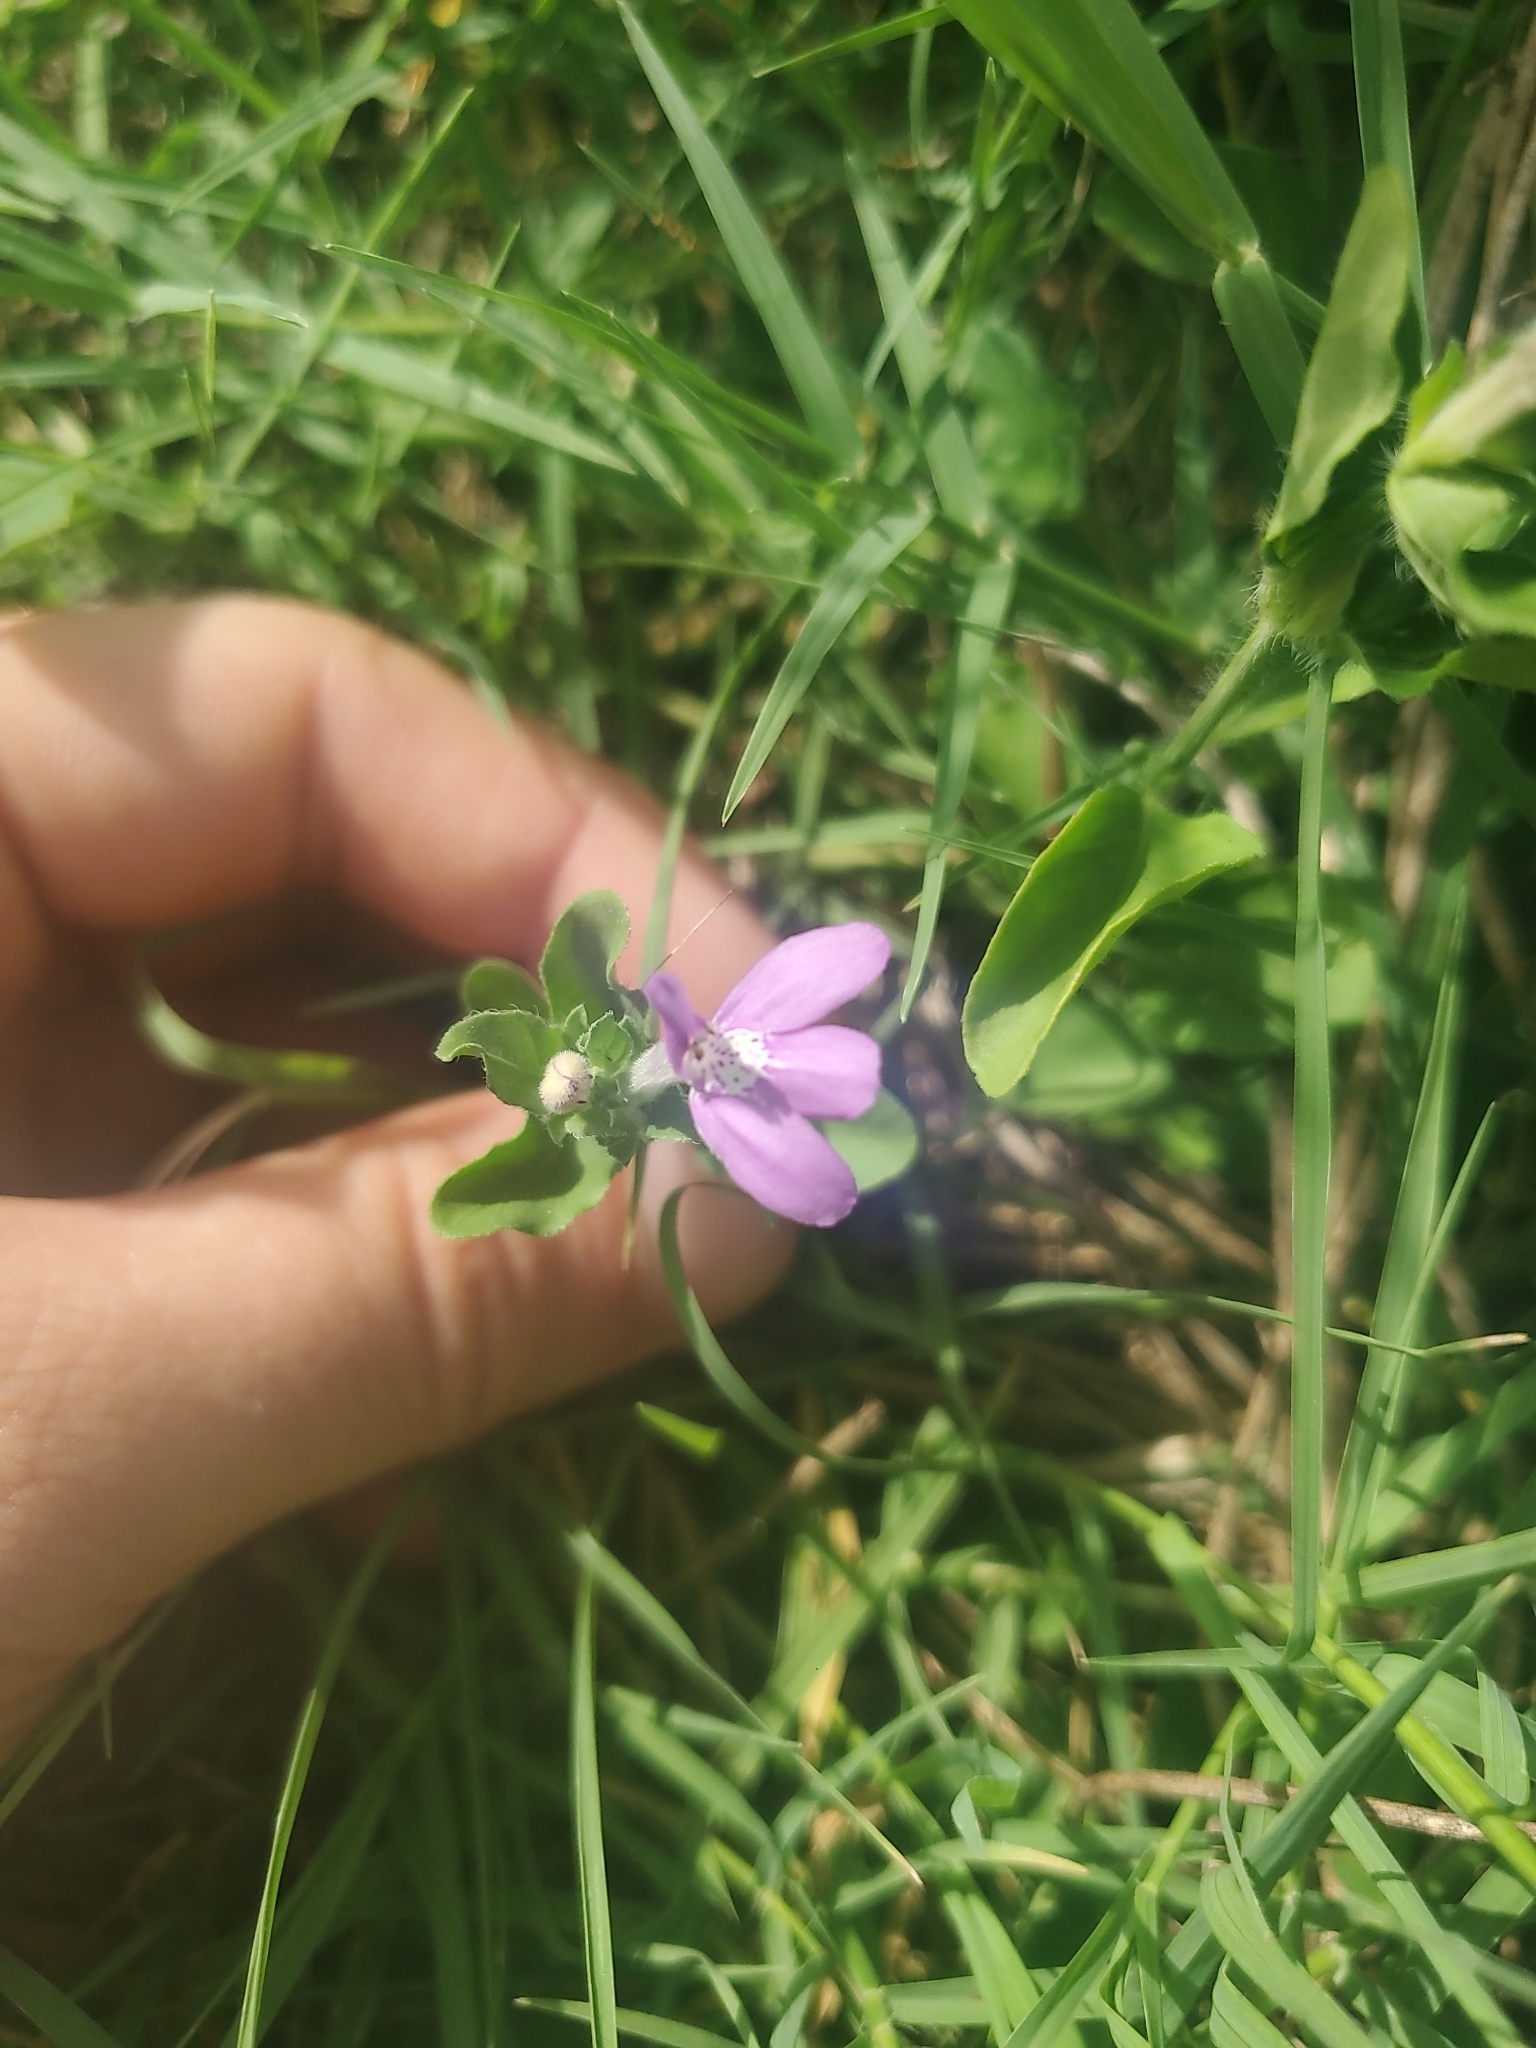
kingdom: Plantae
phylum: Tracheophyta
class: Magnoliopsida
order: Lamiales
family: Acanthaceae
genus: Justicia
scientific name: Justicia pilosella
